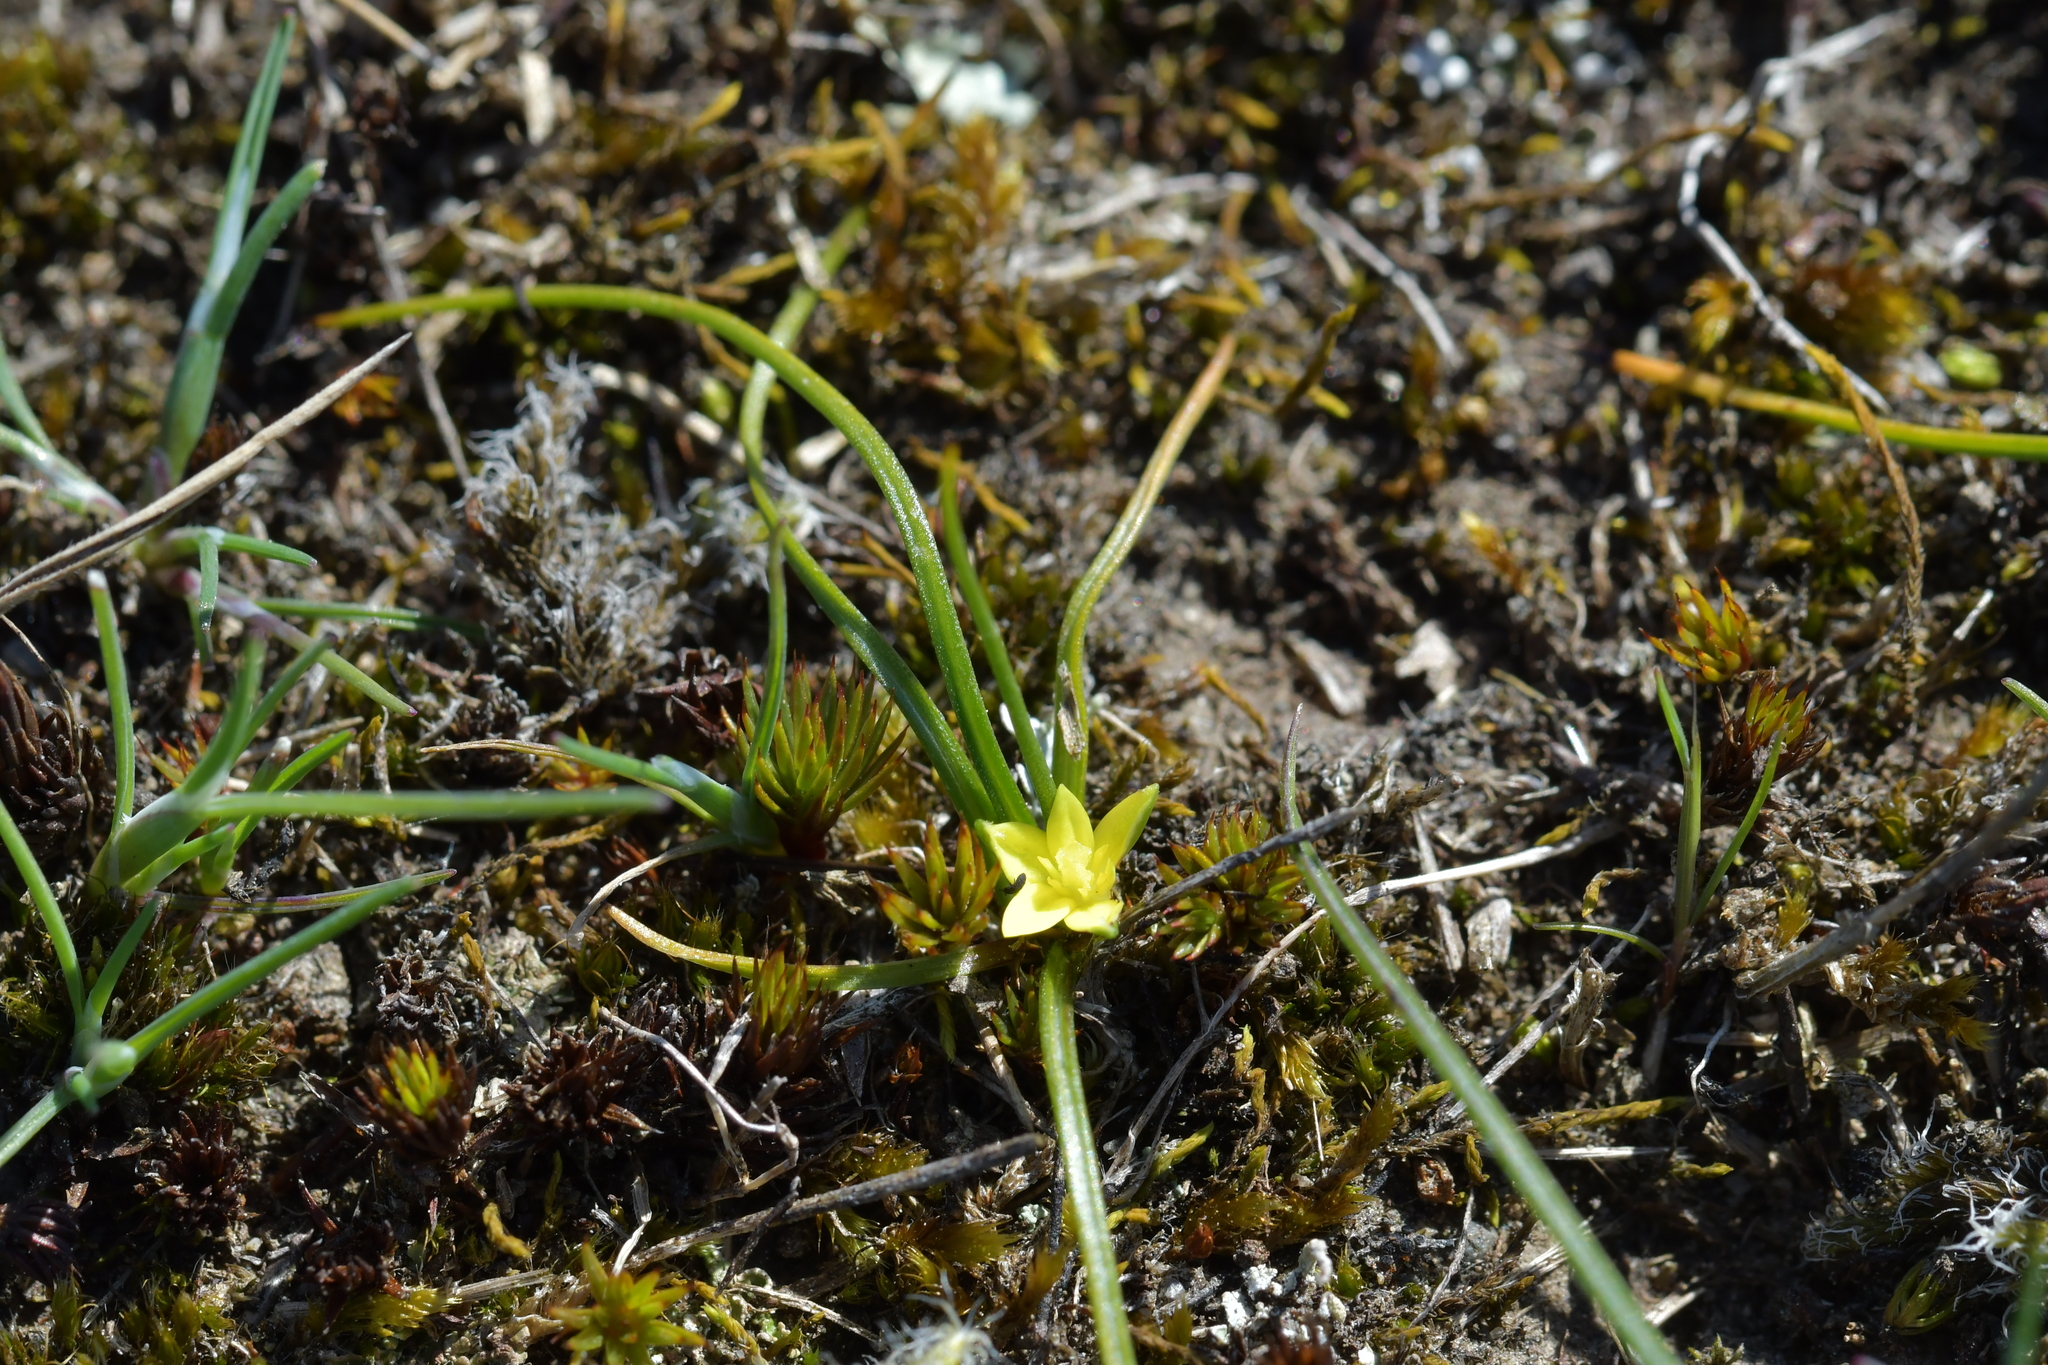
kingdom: Plantae
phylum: Tracheophyta
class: Liliopsida
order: Asparagales
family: Hypoxidaceae
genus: Pauridia
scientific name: Pauridia glabella
